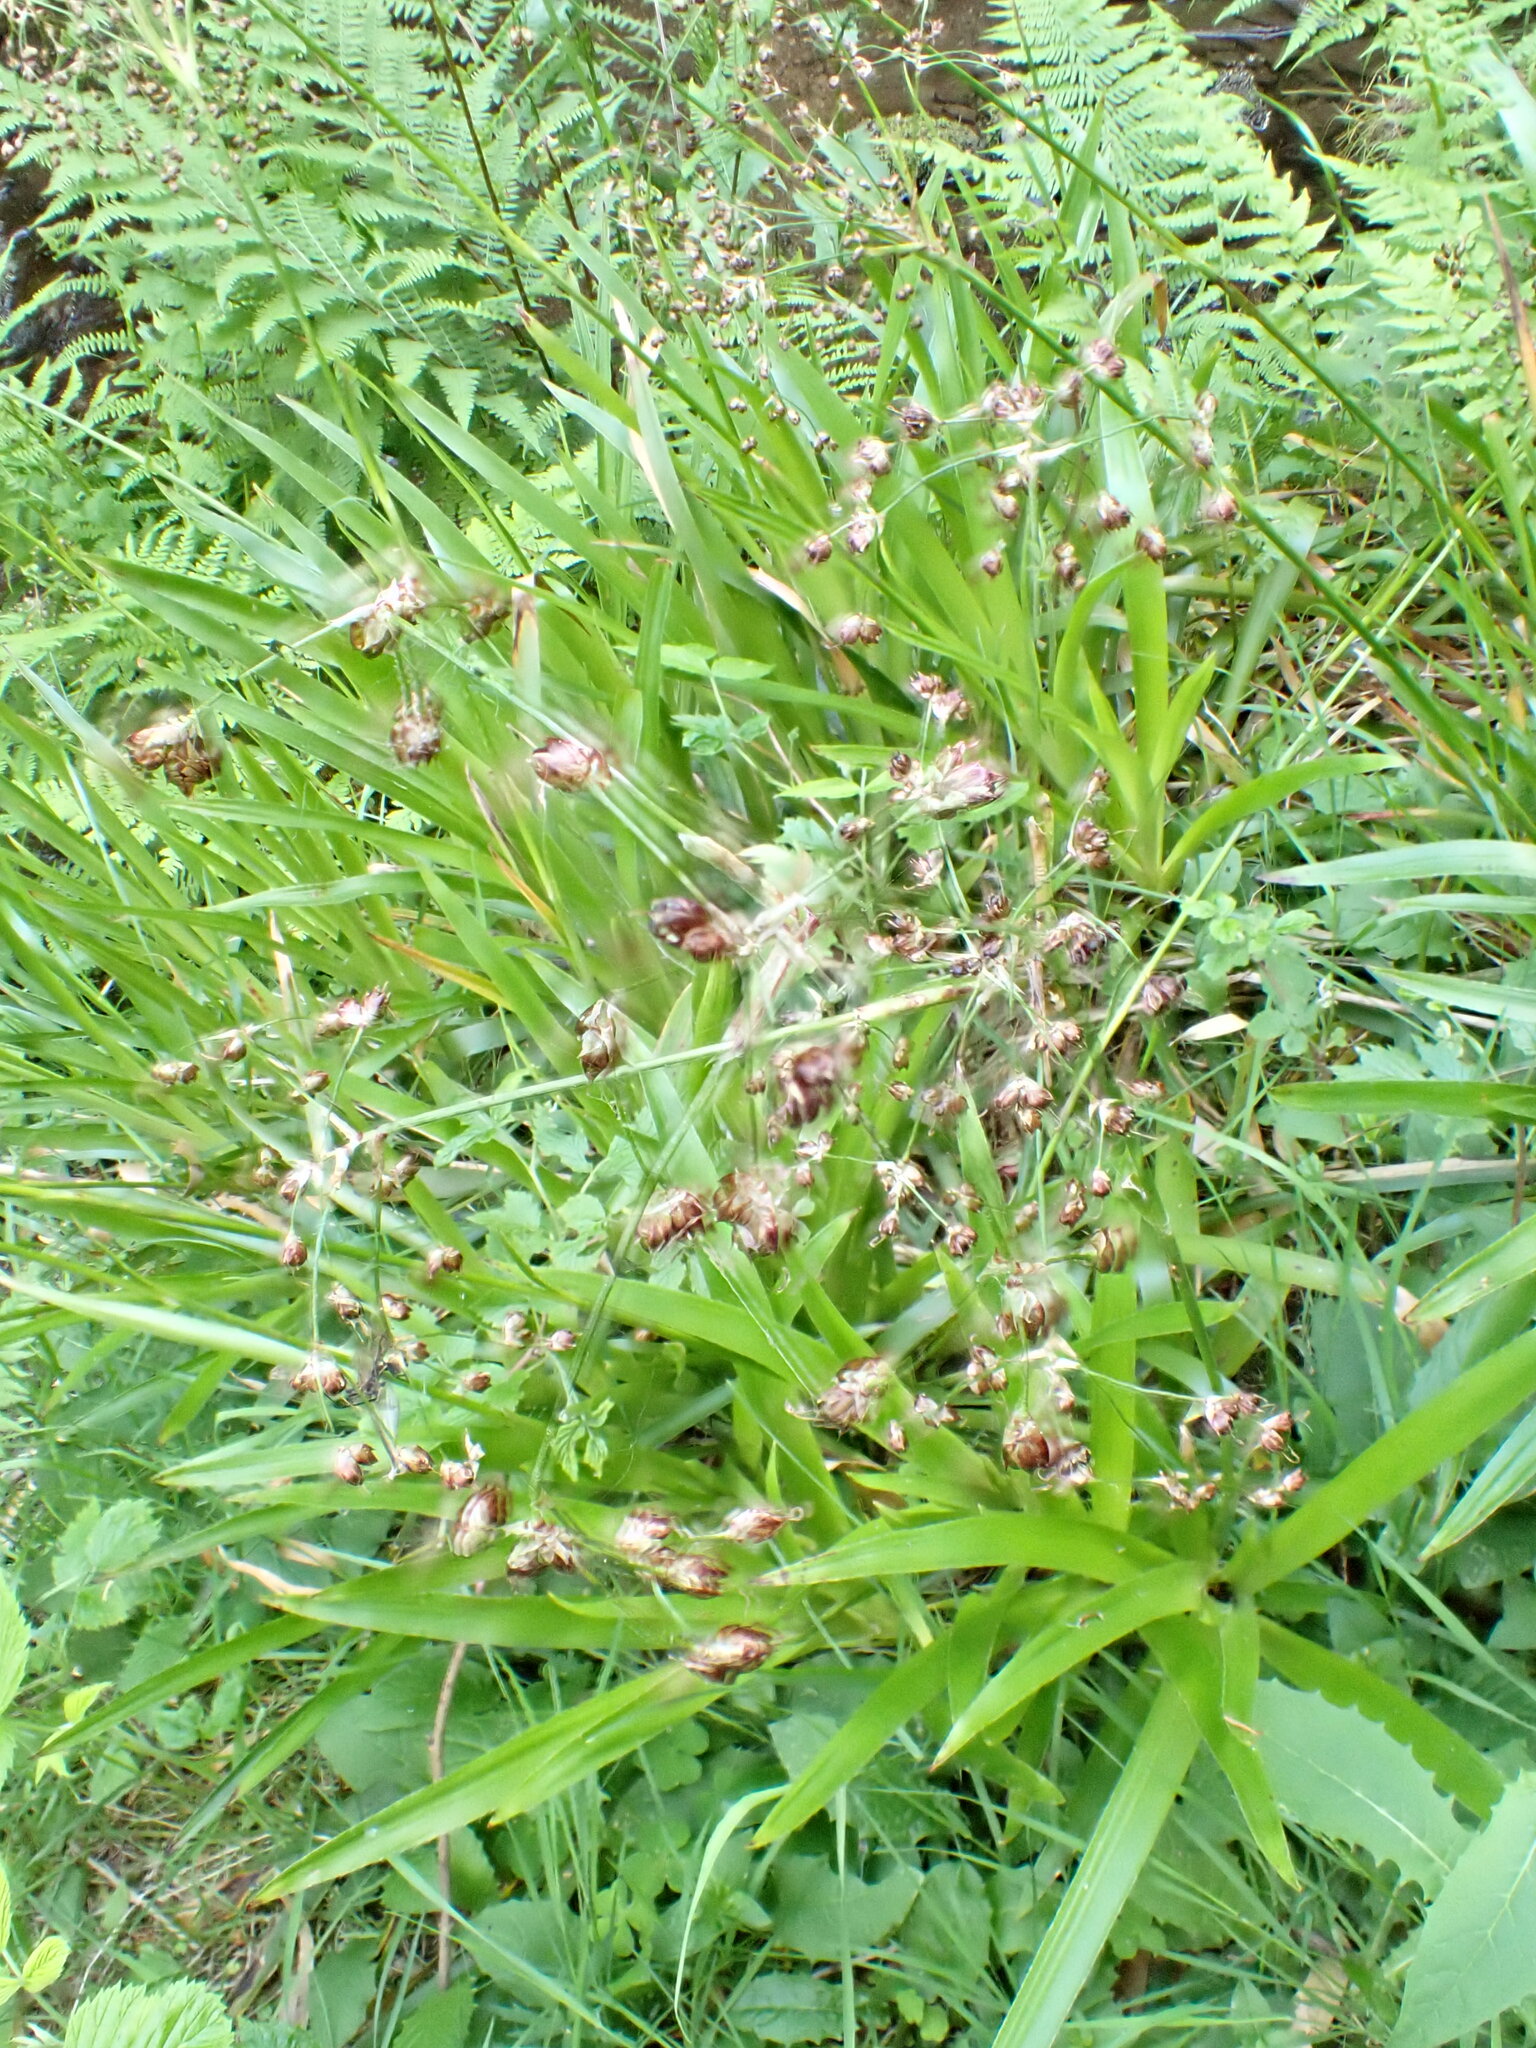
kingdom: Plantae
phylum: Tracheophyta
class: Liliopsida
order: Poales
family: Juncaceae
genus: Luzula
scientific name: Luzula sylvatica
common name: Great wood-rush
